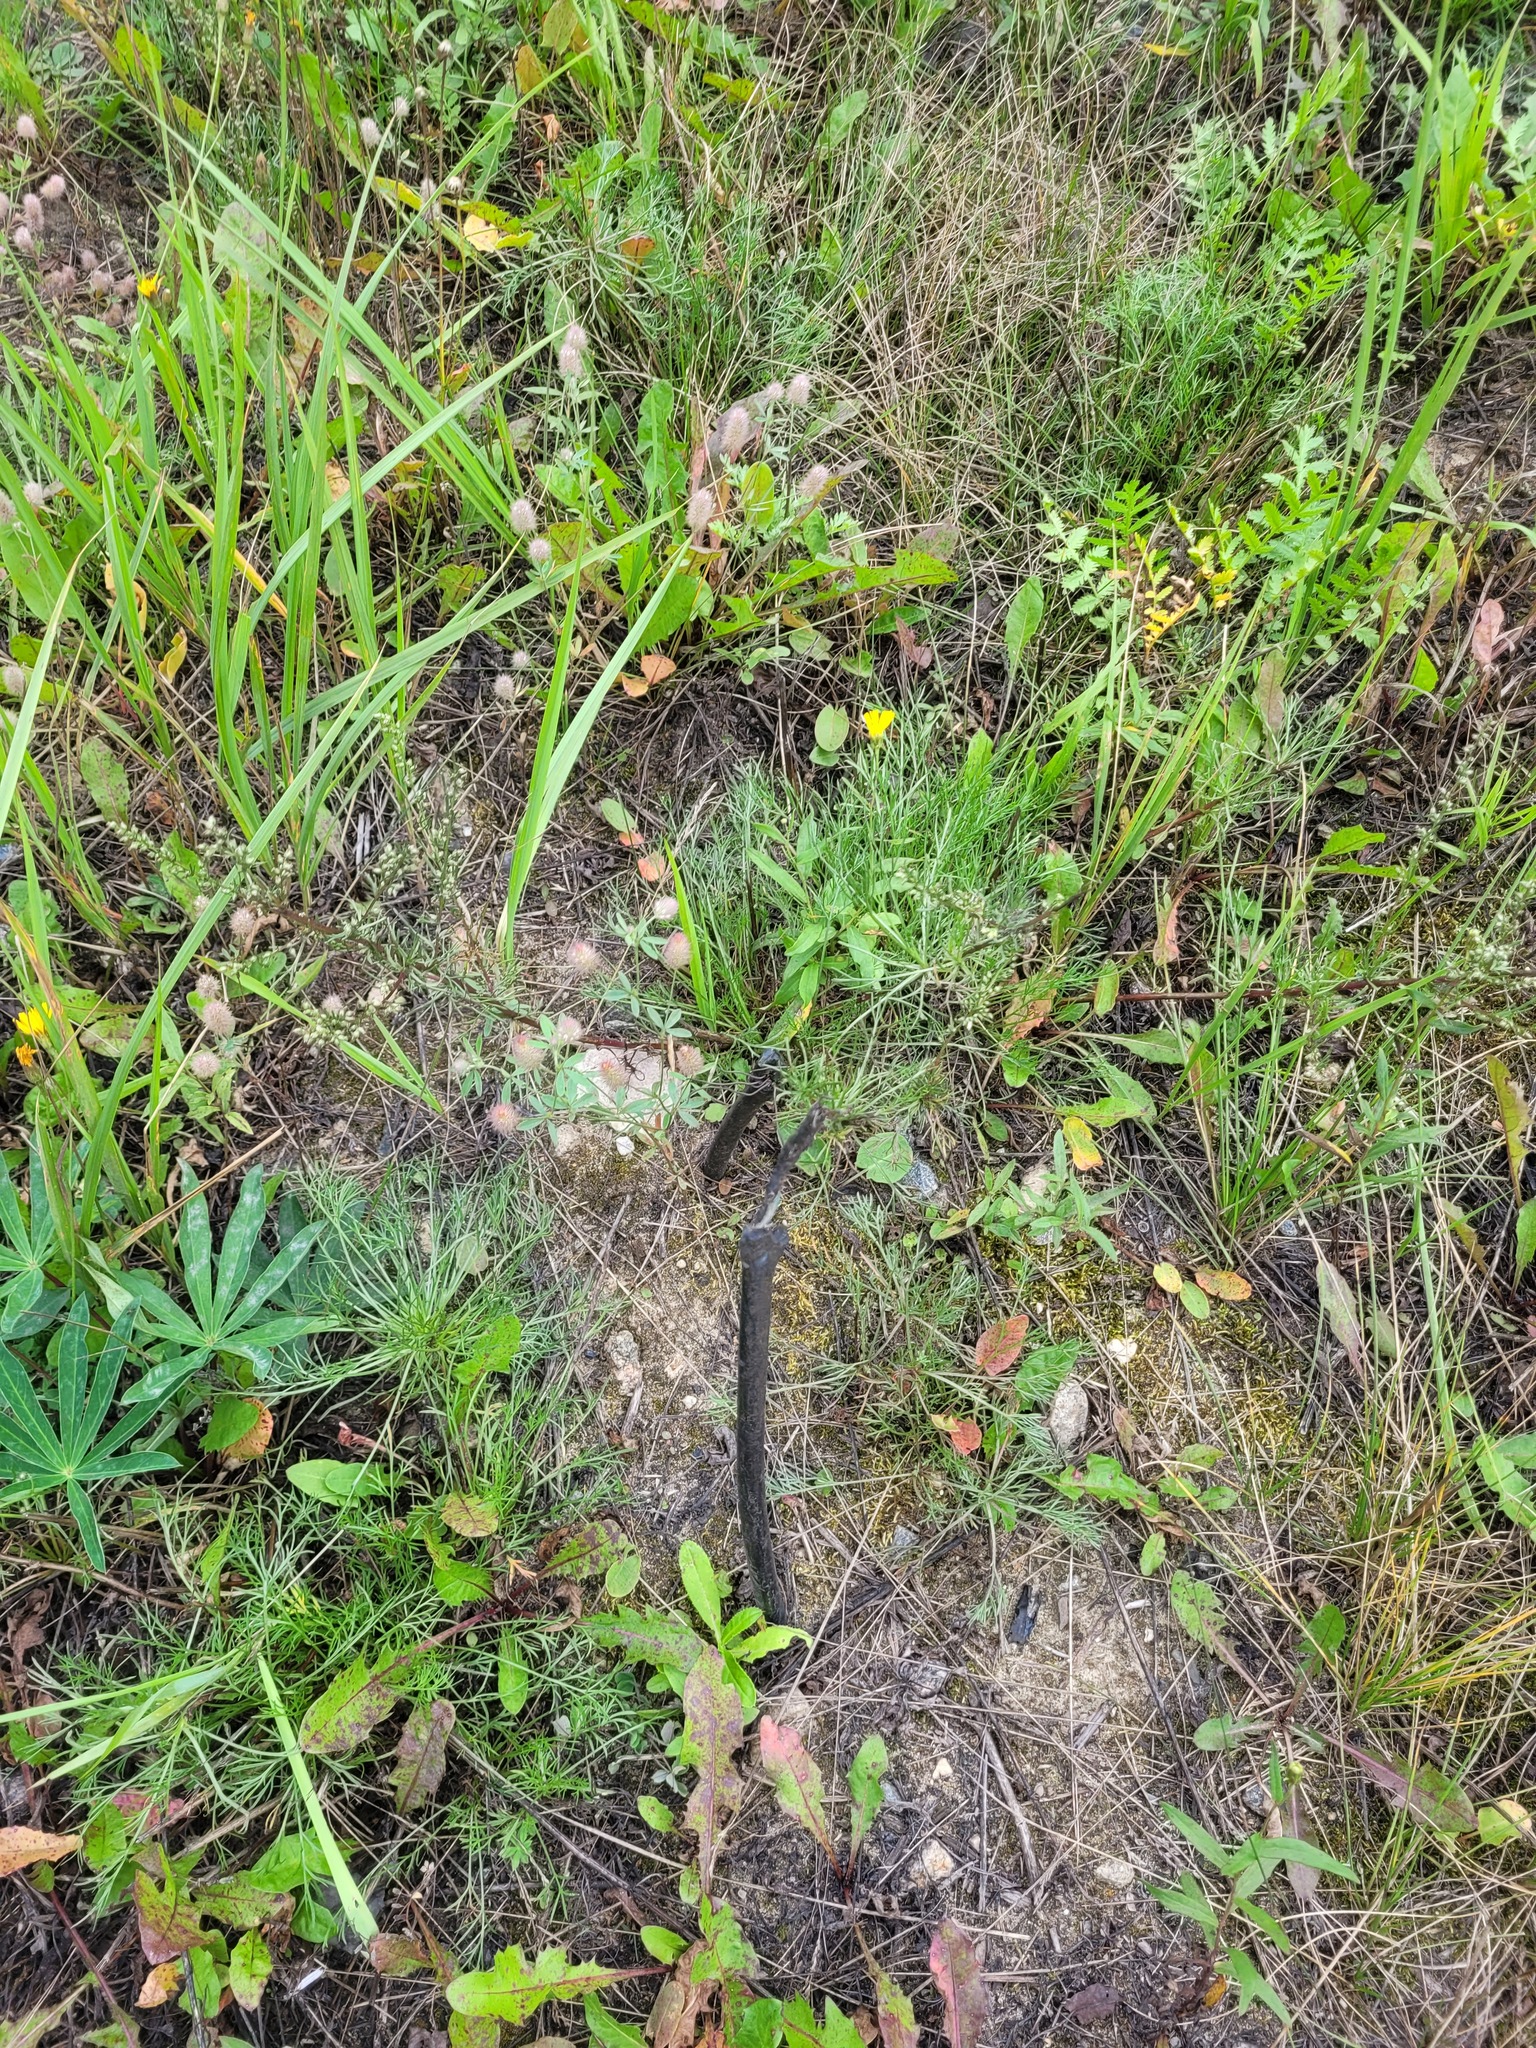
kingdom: Plantae
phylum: Tracheophyta
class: Magnoliopsida
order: Fabales
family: Fabaceae
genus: Trifolium
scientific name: Trifolium arvense
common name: Hare's-foot clover
